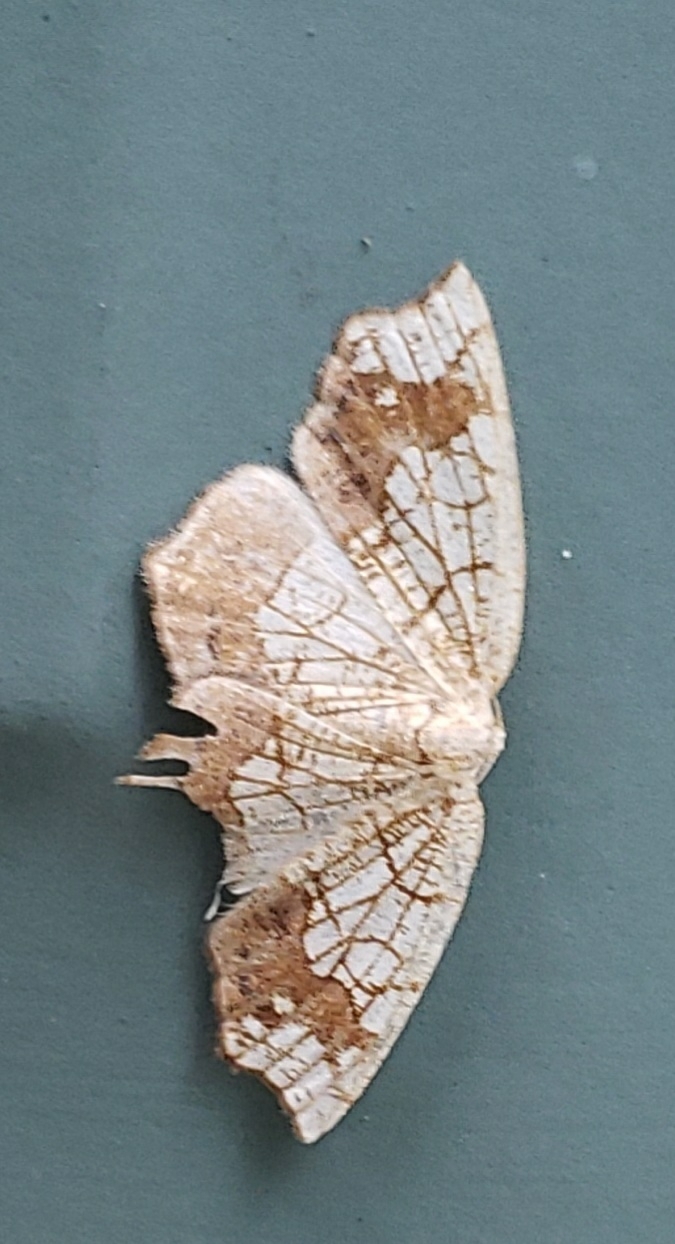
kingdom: Animalia
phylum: Arthropoda
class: Insecta
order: Lepidoptera
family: Geometridae
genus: Nematocampa
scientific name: Nematocampa resistaria
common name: Horned spanworm moth
